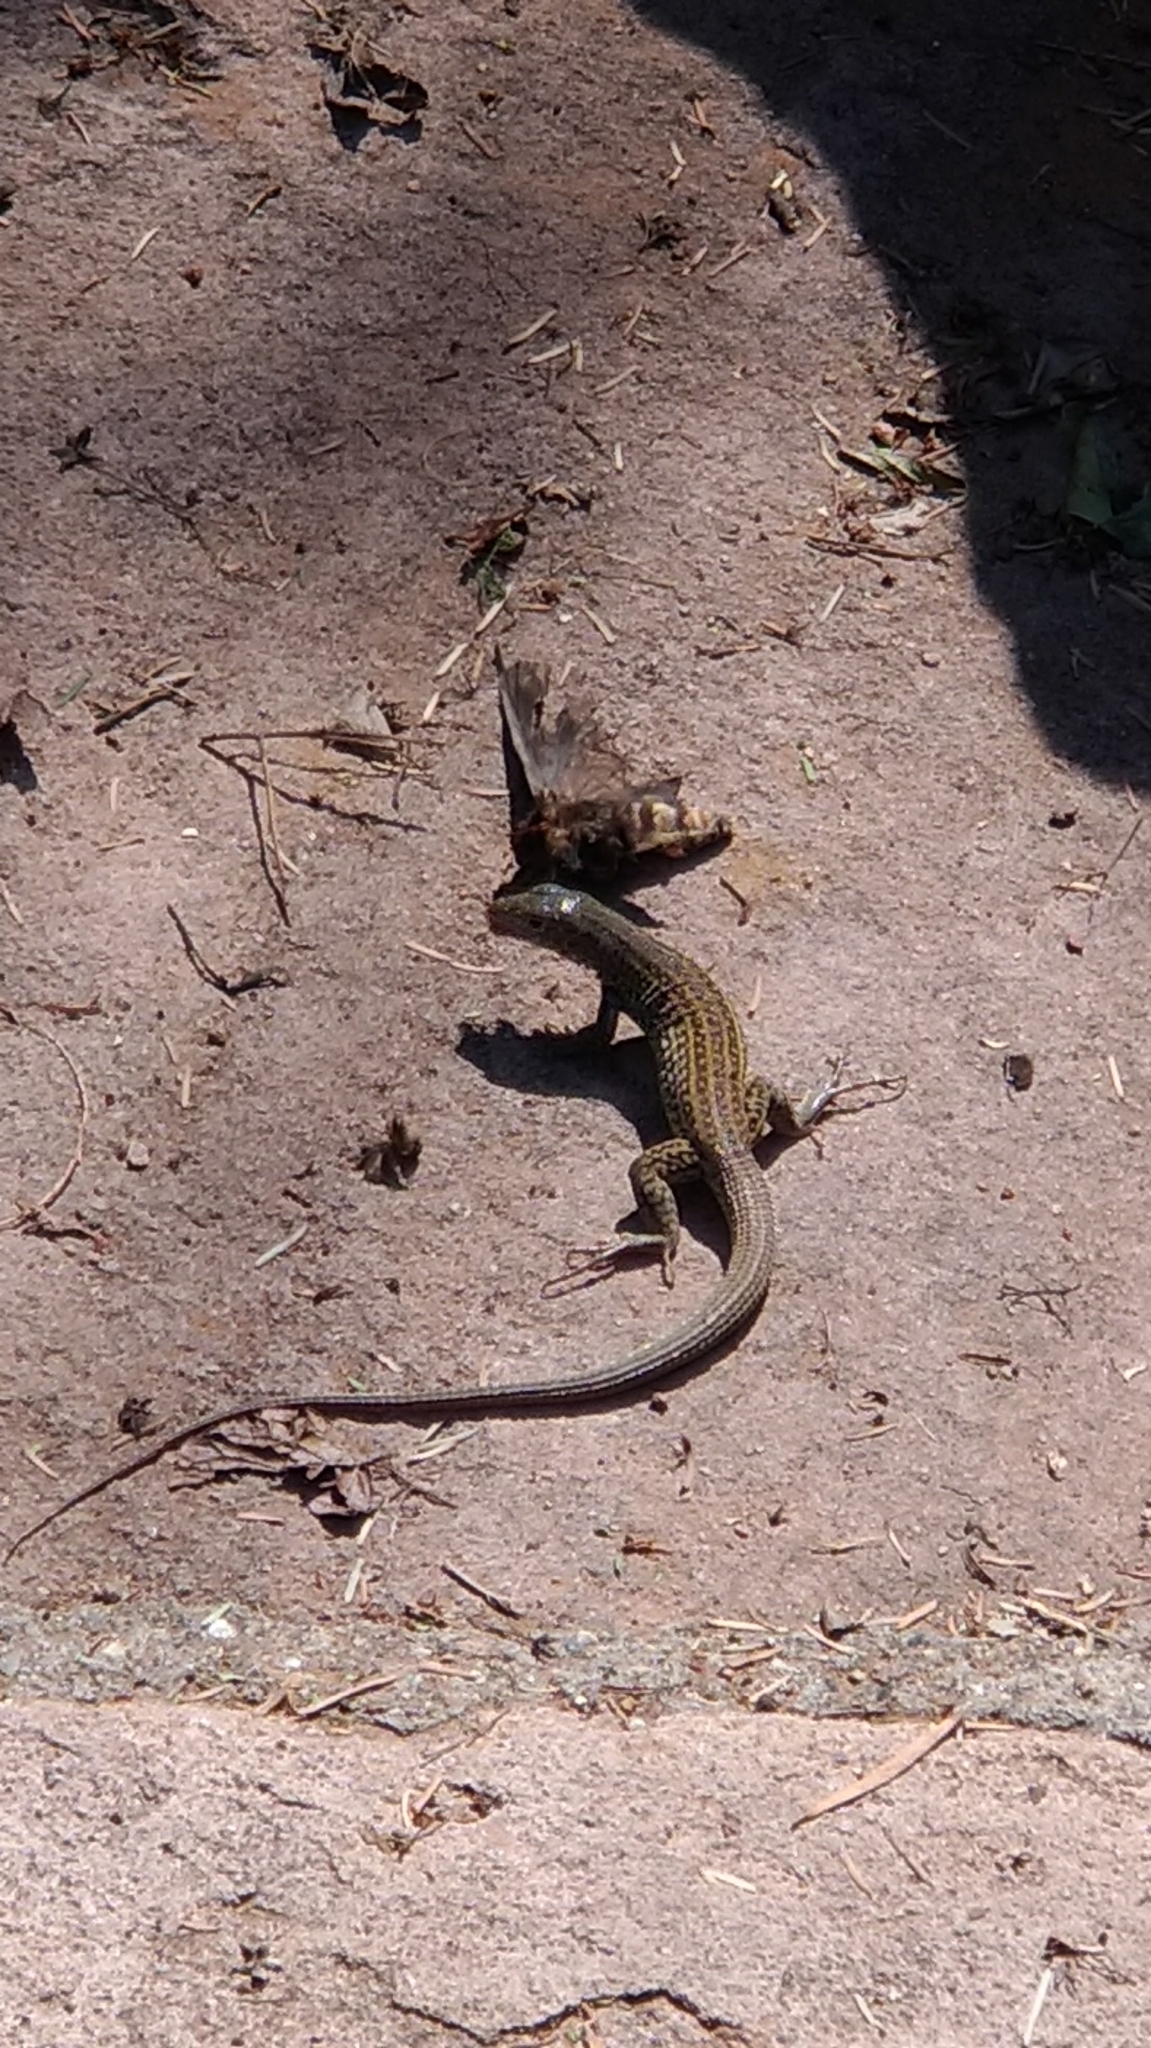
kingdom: Animalia
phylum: Chordata
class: Squamata
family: Teiidae
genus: Aspidoscelis
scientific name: Aspidoscelis tigris
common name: Tiger whiptail
